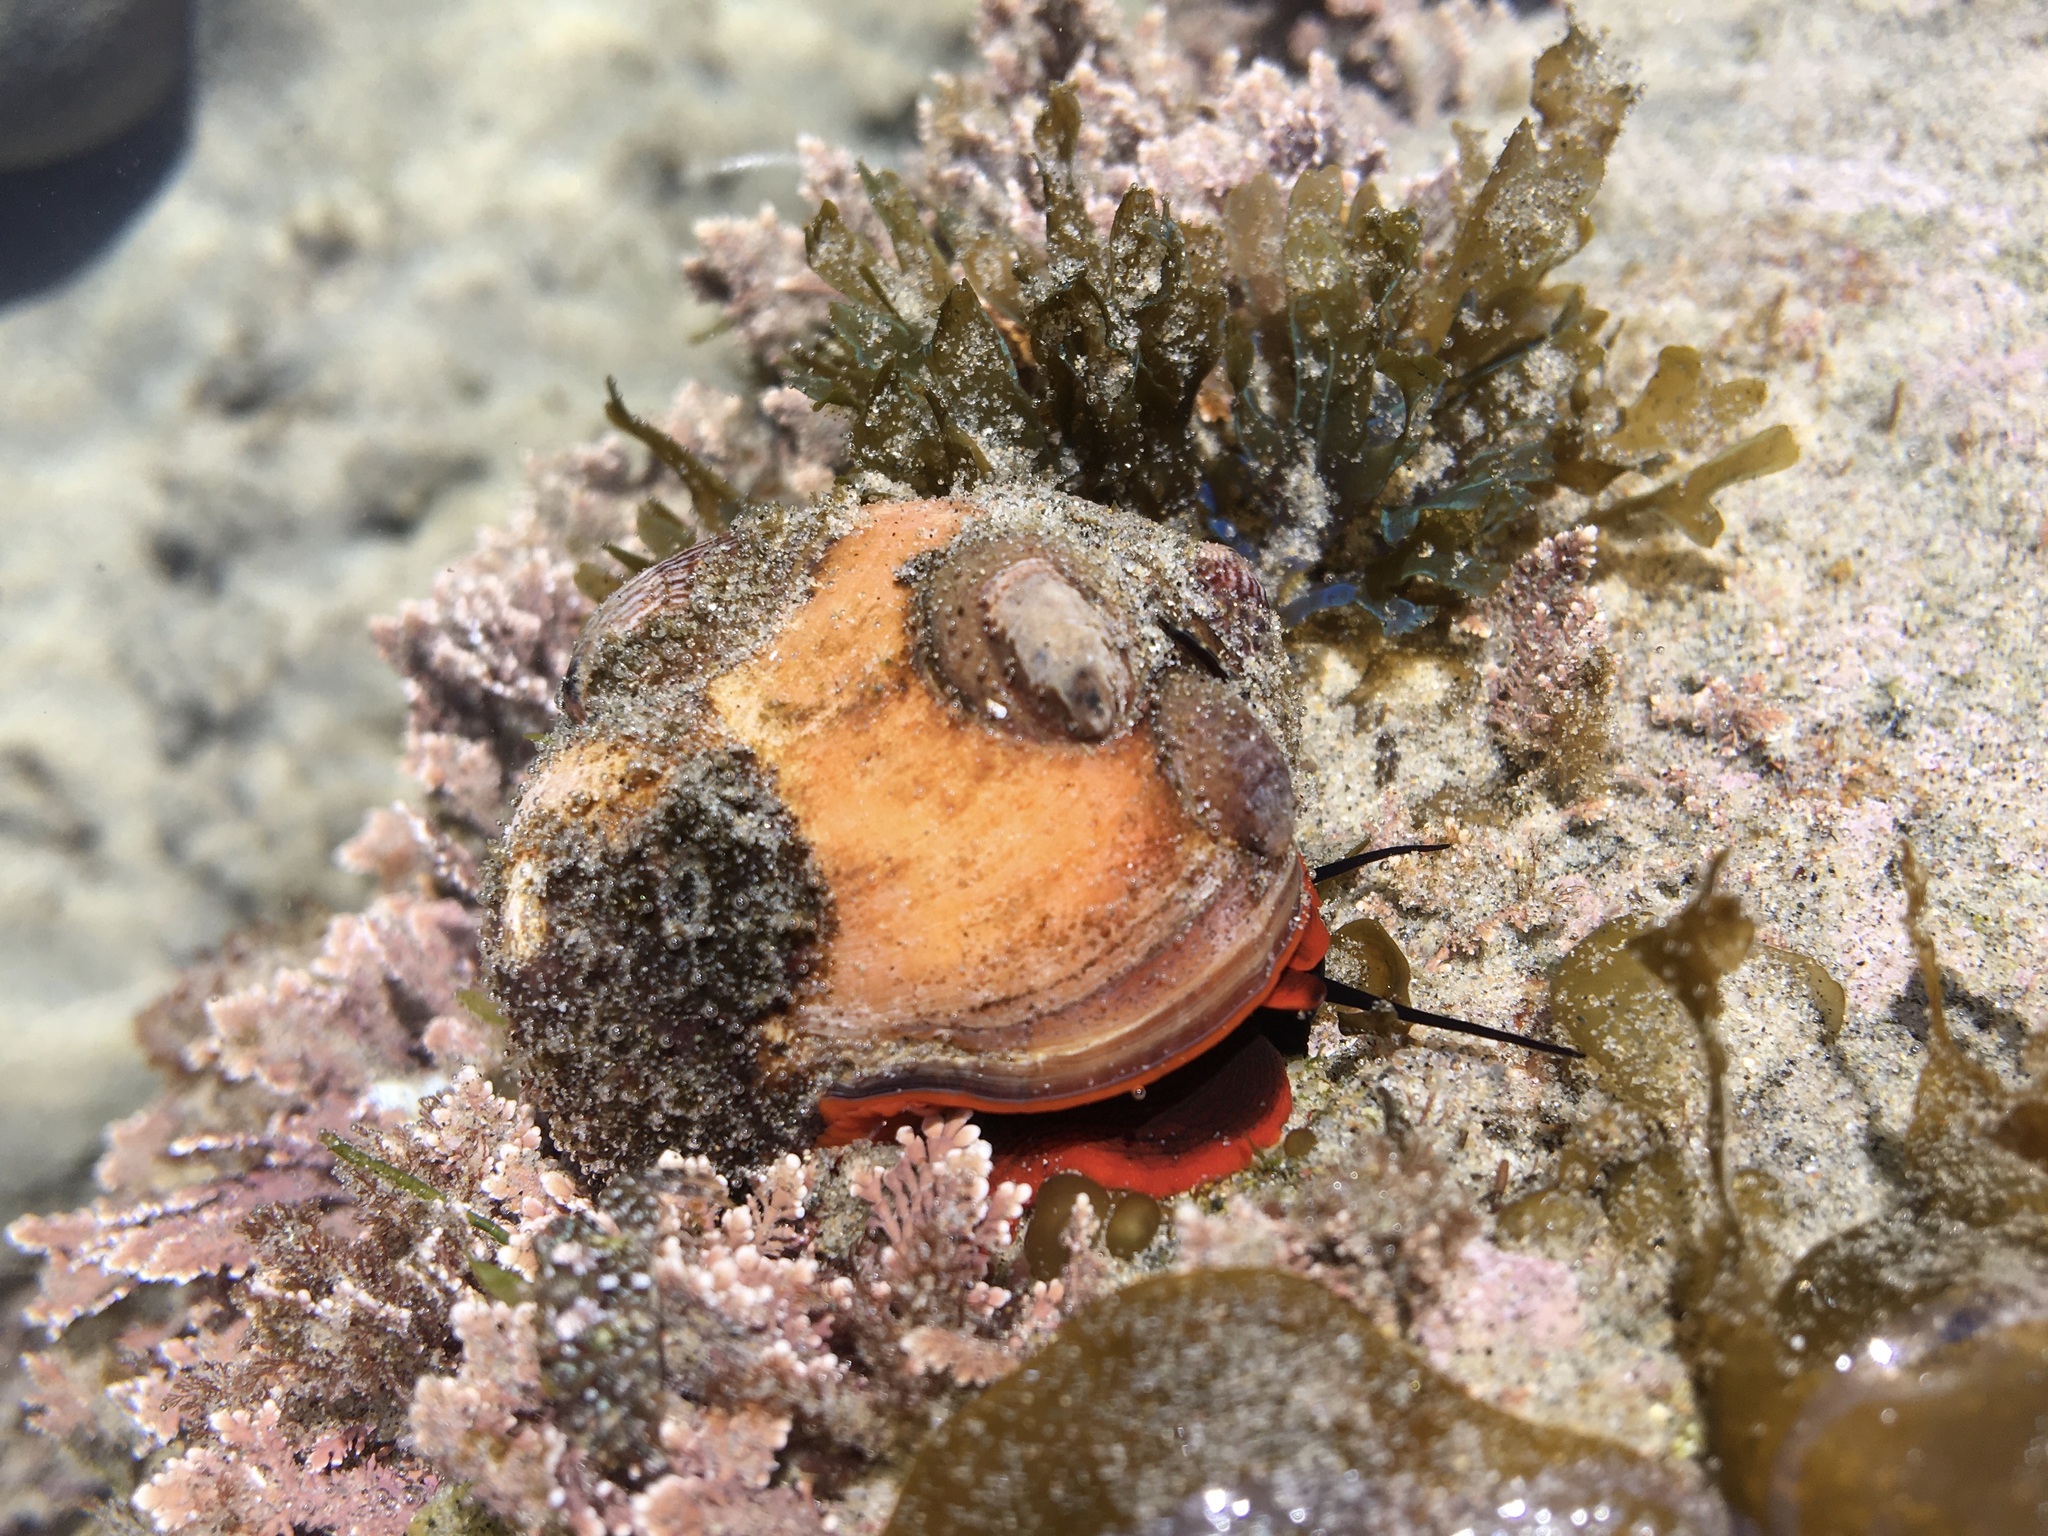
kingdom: Animalia
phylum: Mollusca
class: Gastropoda
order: Trochida
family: Tegulidae
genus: Norrisia
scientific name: Norrisia norrisii
